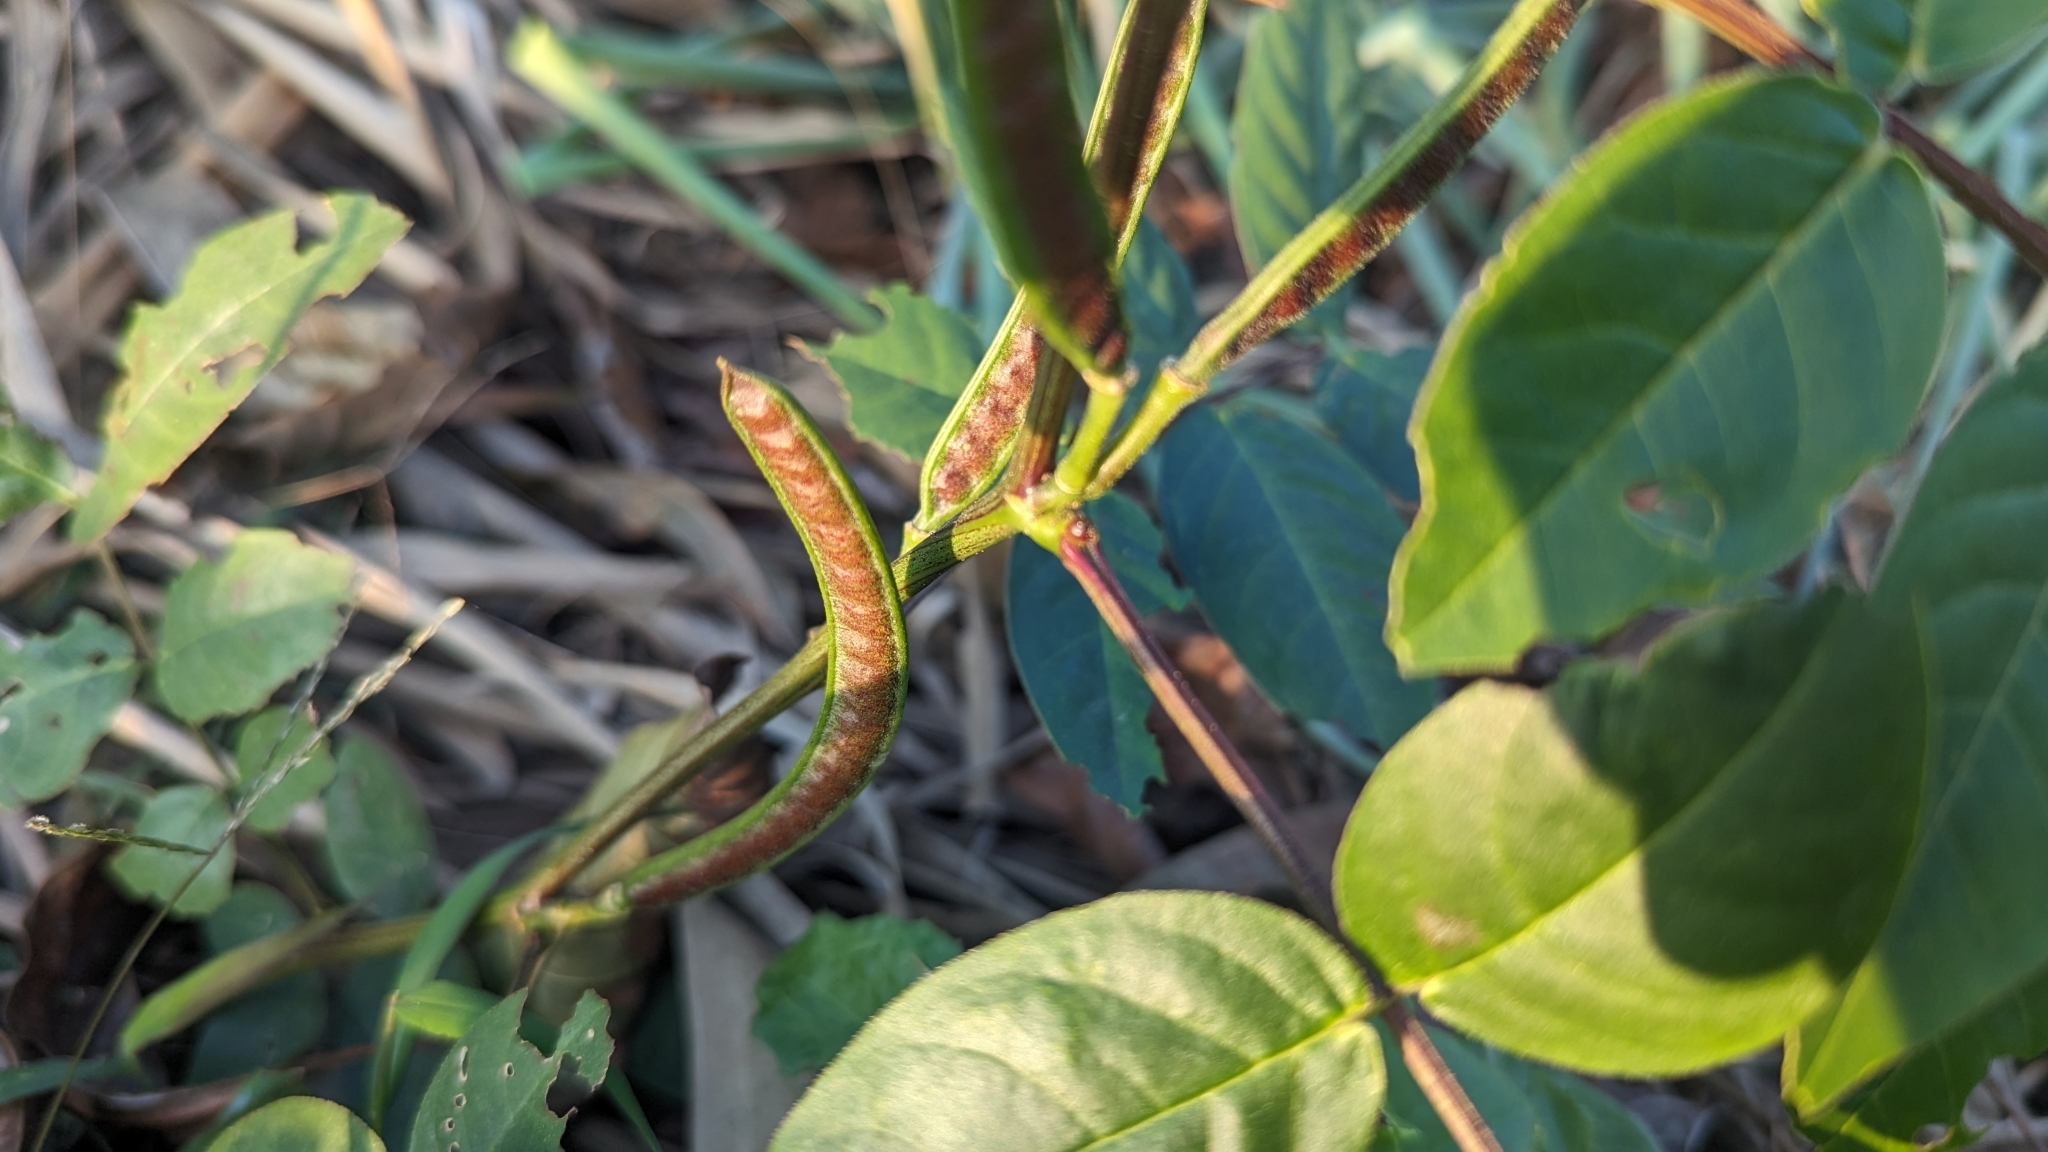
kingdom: Plantae
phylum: Tracheophyta
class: Magnoliopsida
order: Fabales
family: Fabaceae
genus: Senna
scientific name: Senna occidentalis
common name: Septicweed
